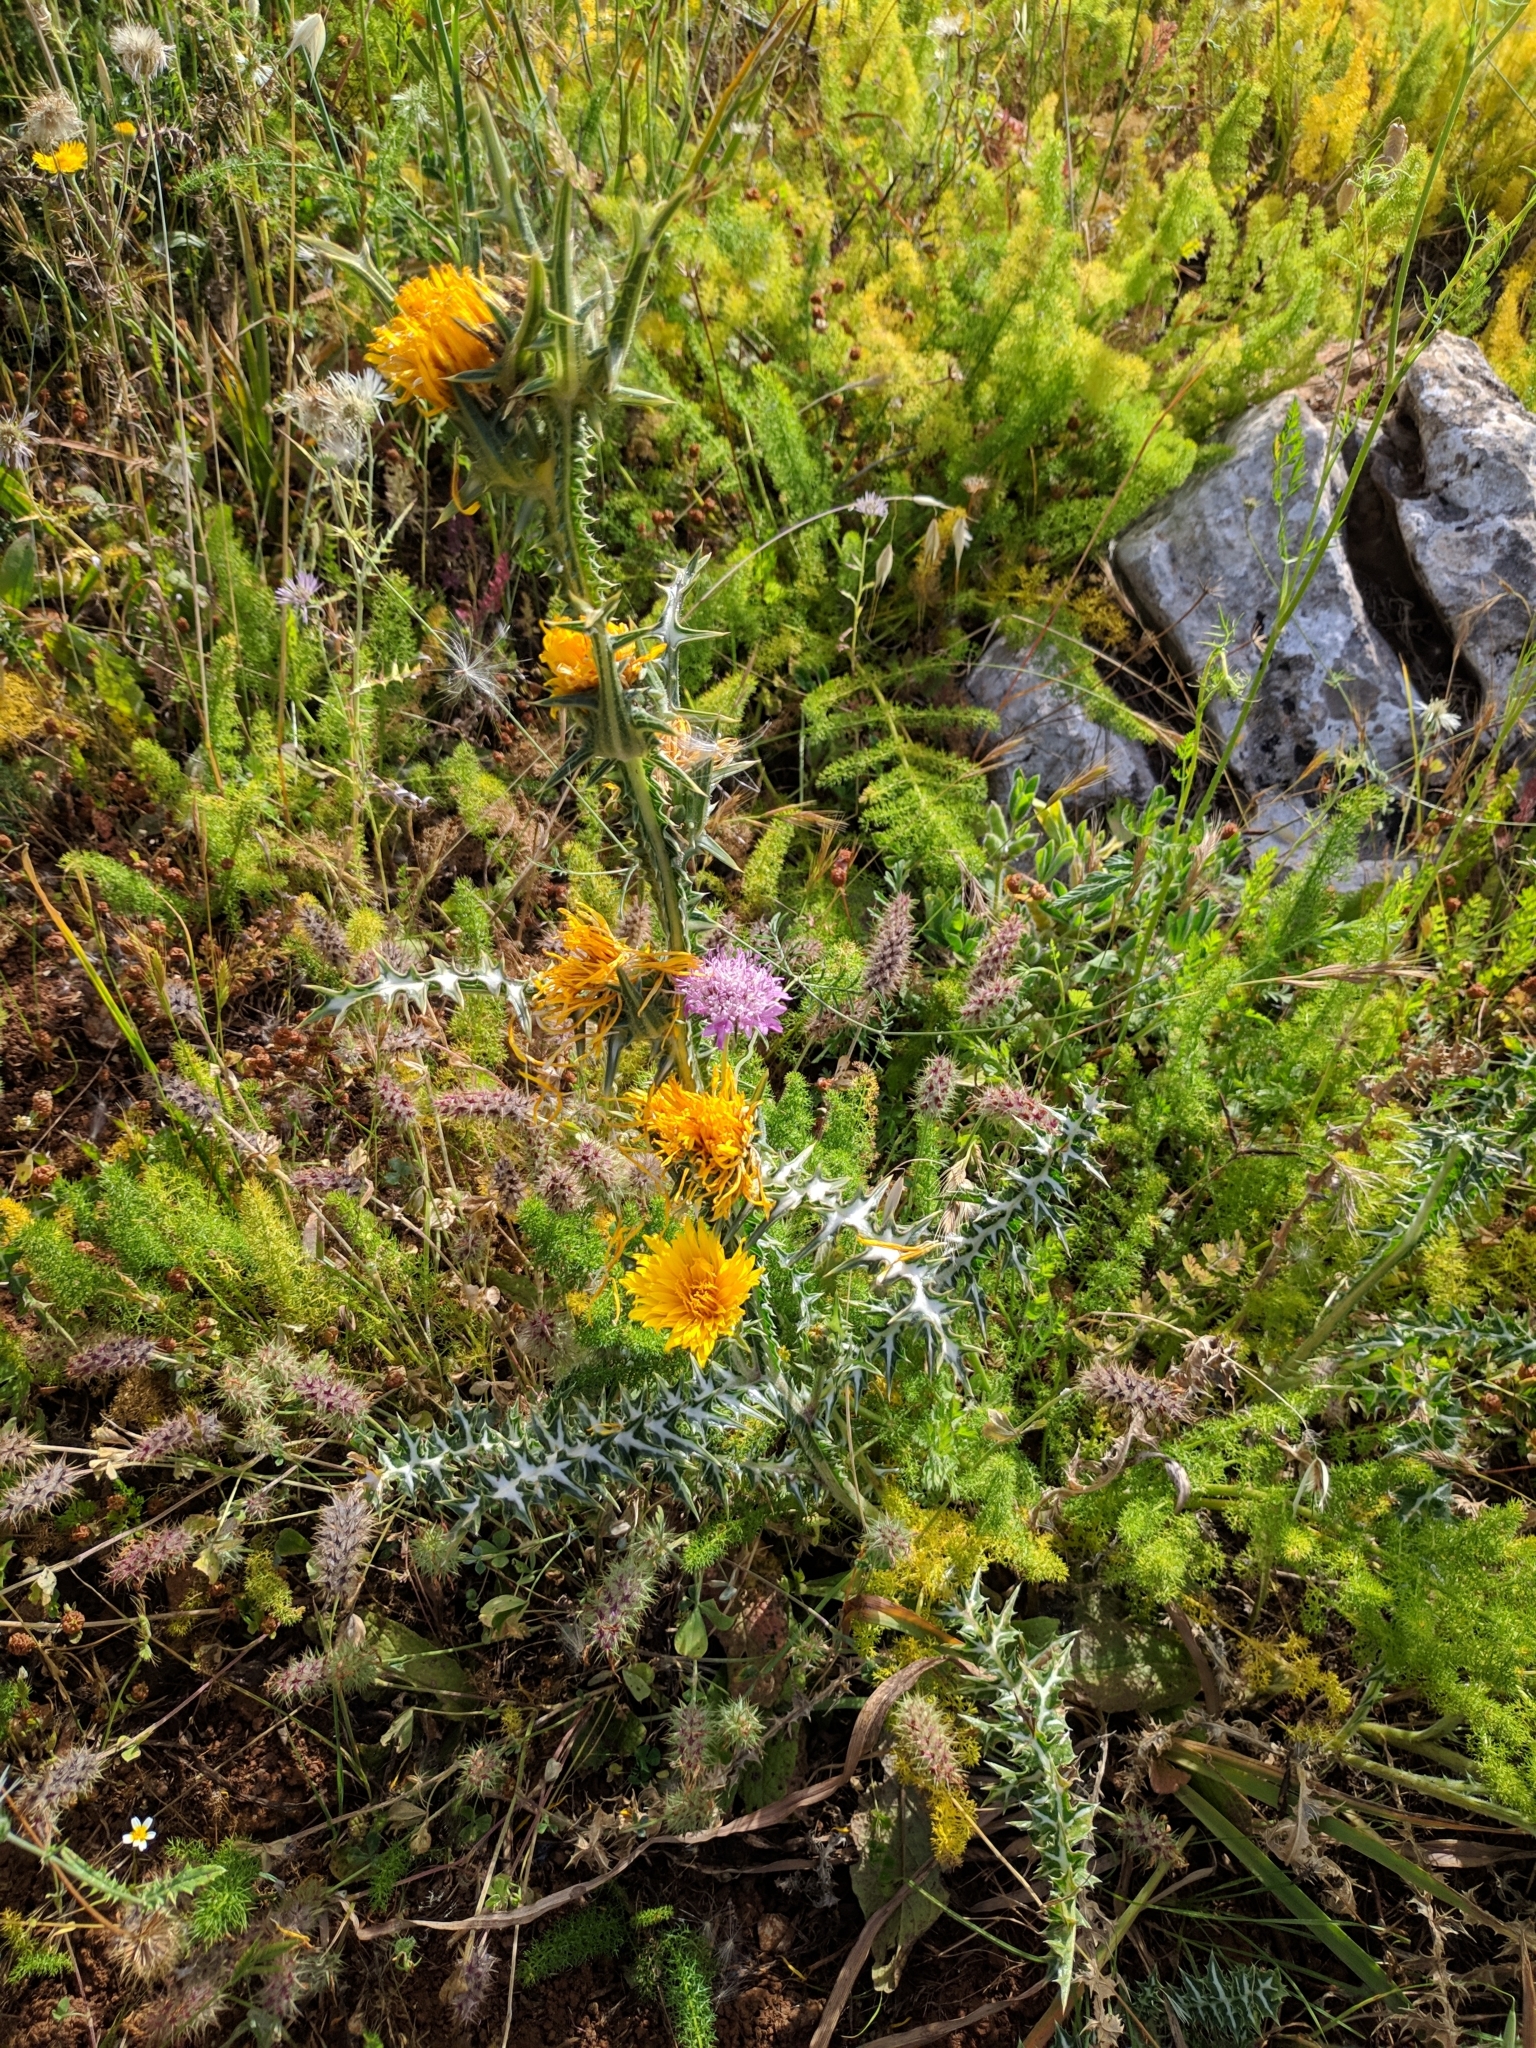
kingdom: Plantae
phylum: Tracheophyta
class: Magnoliopsida
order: Asterales
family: Asteraceae
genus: Scolymus
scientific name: Scolymus grandiflorus
